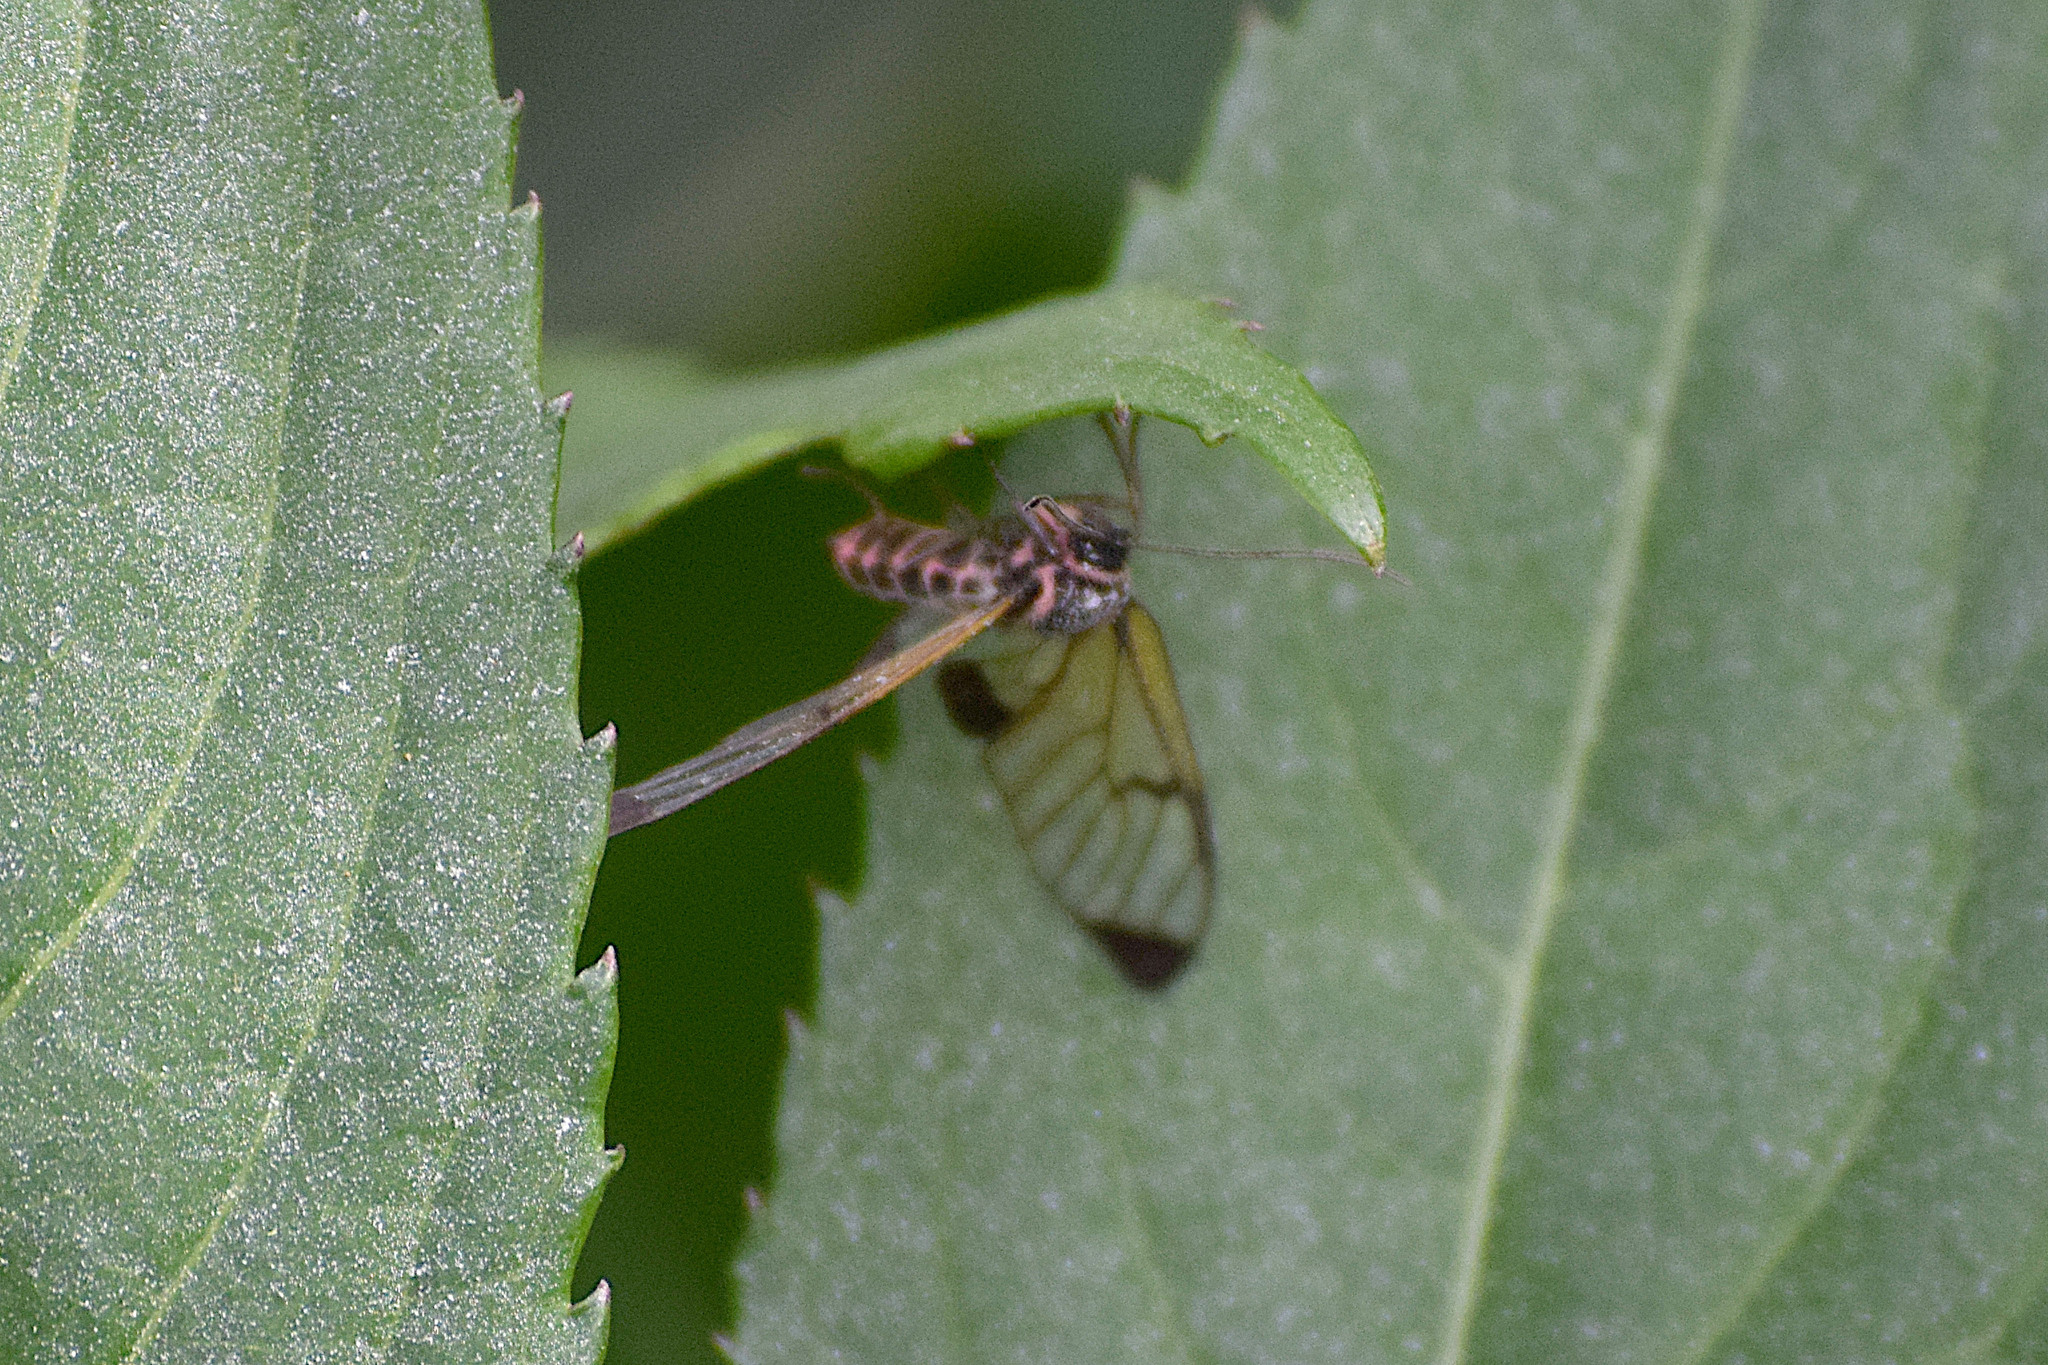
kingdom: Animalia
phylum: Arthropoda
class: Insecta
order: Lepidoptera
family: Erebidae
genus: Eressa
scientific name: Eressa multigutta
